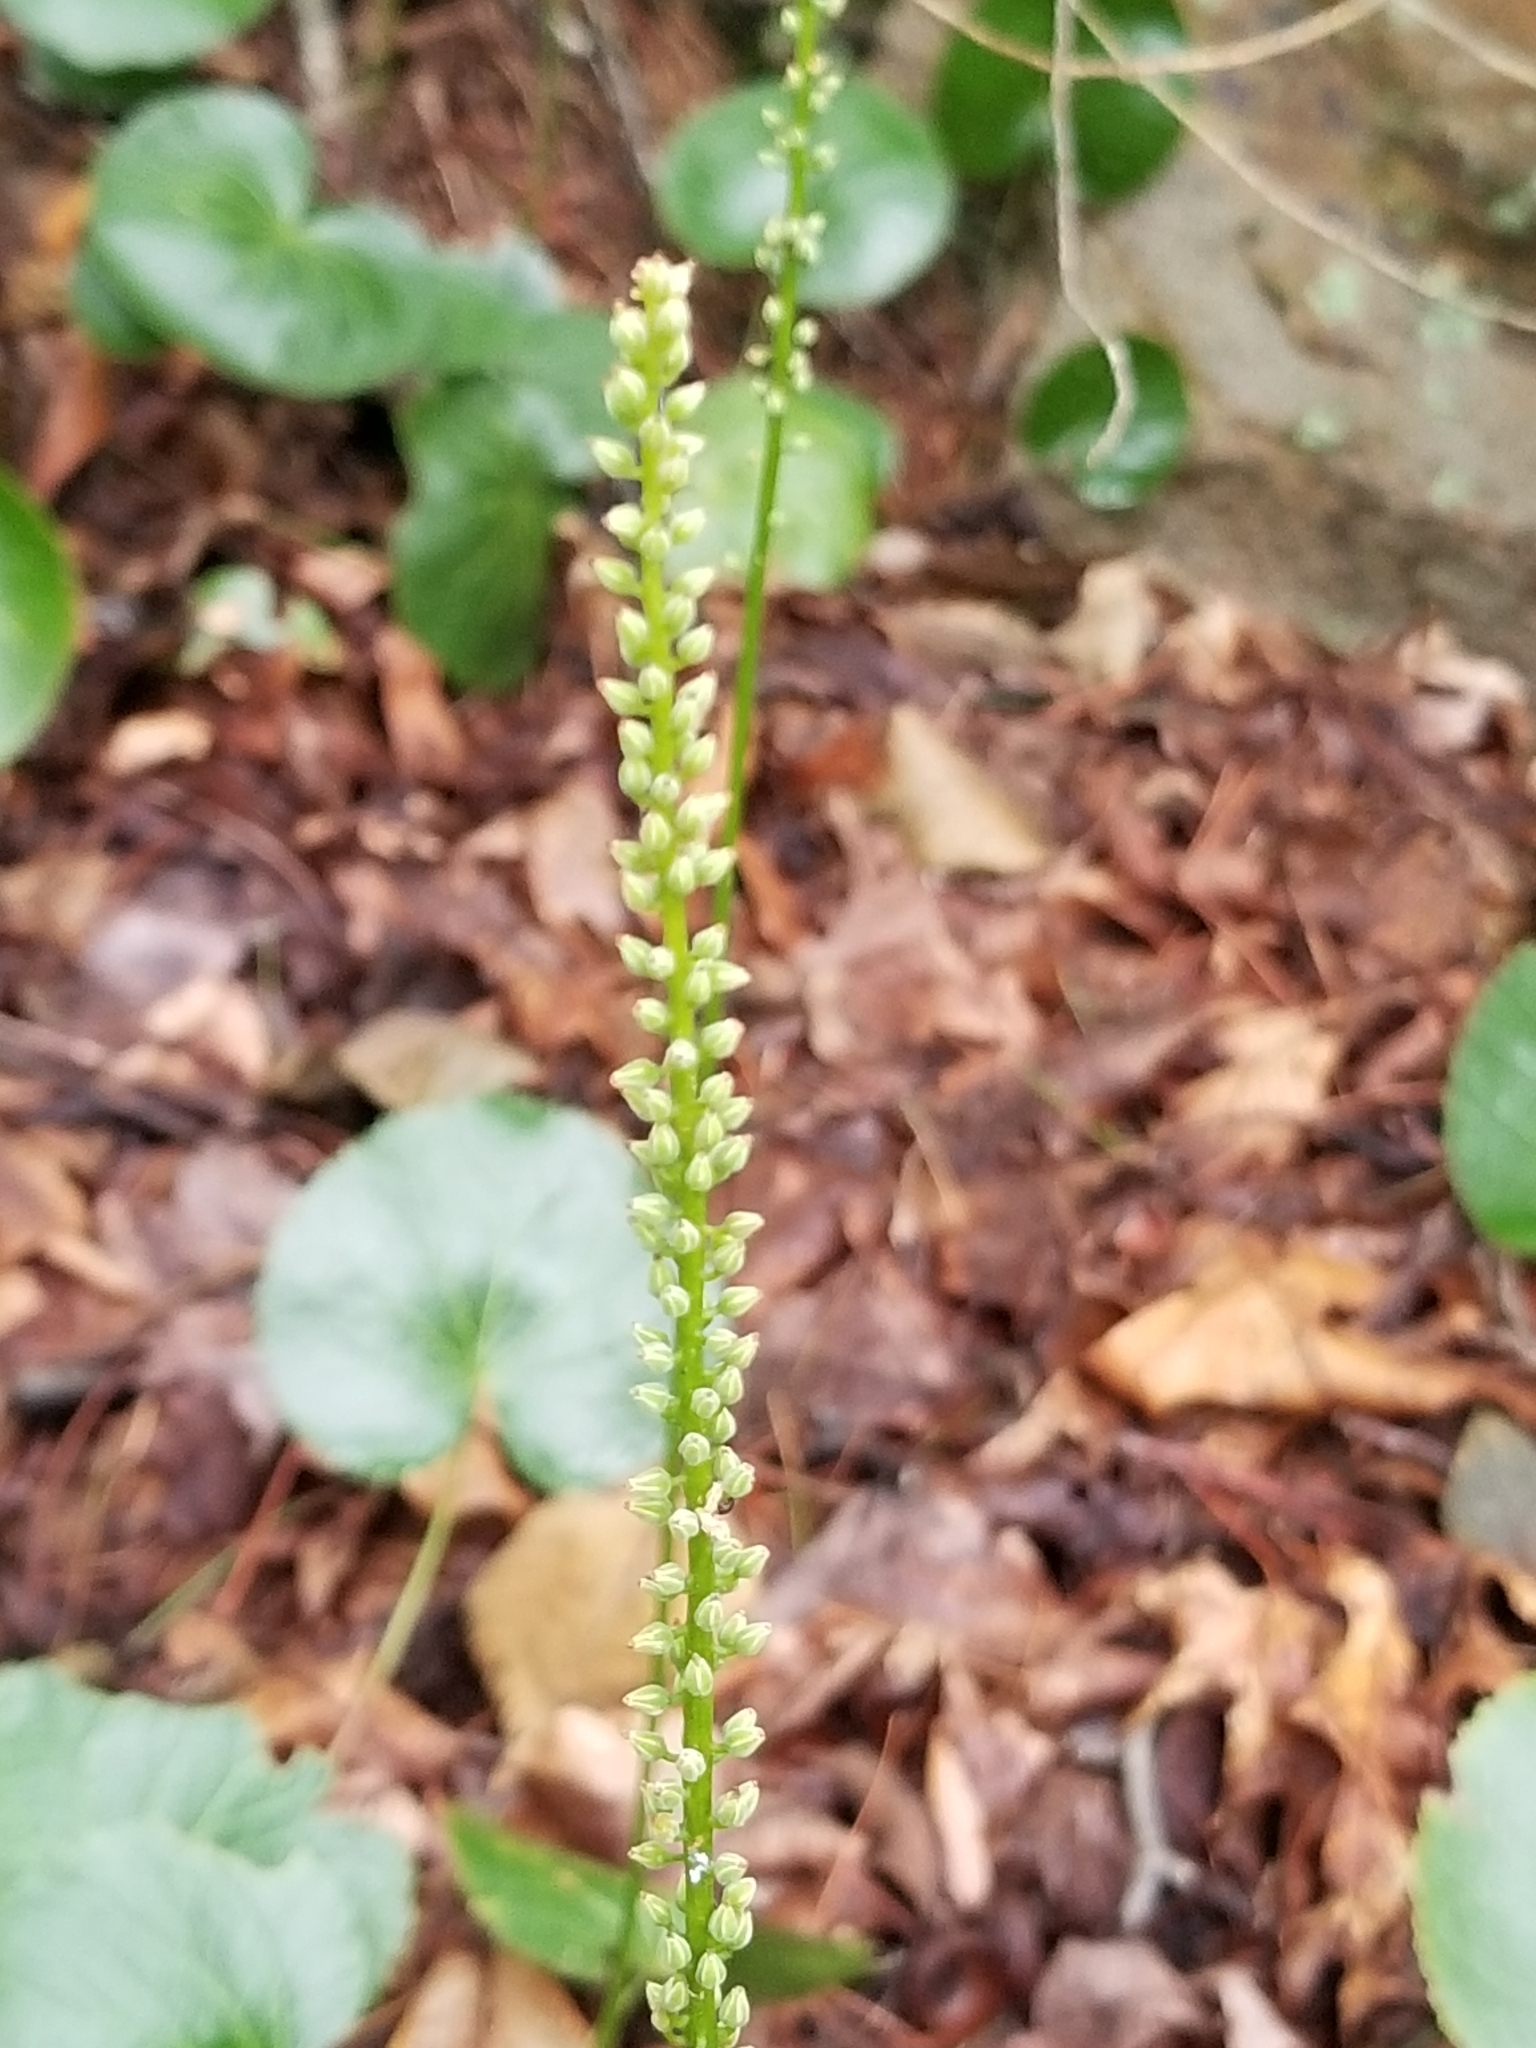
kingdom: Plantae
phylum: Tracheophyta
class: Magnoliopsida
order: Ericales
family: Diapensiaceae
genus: Galax
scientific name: Galax urceolata
